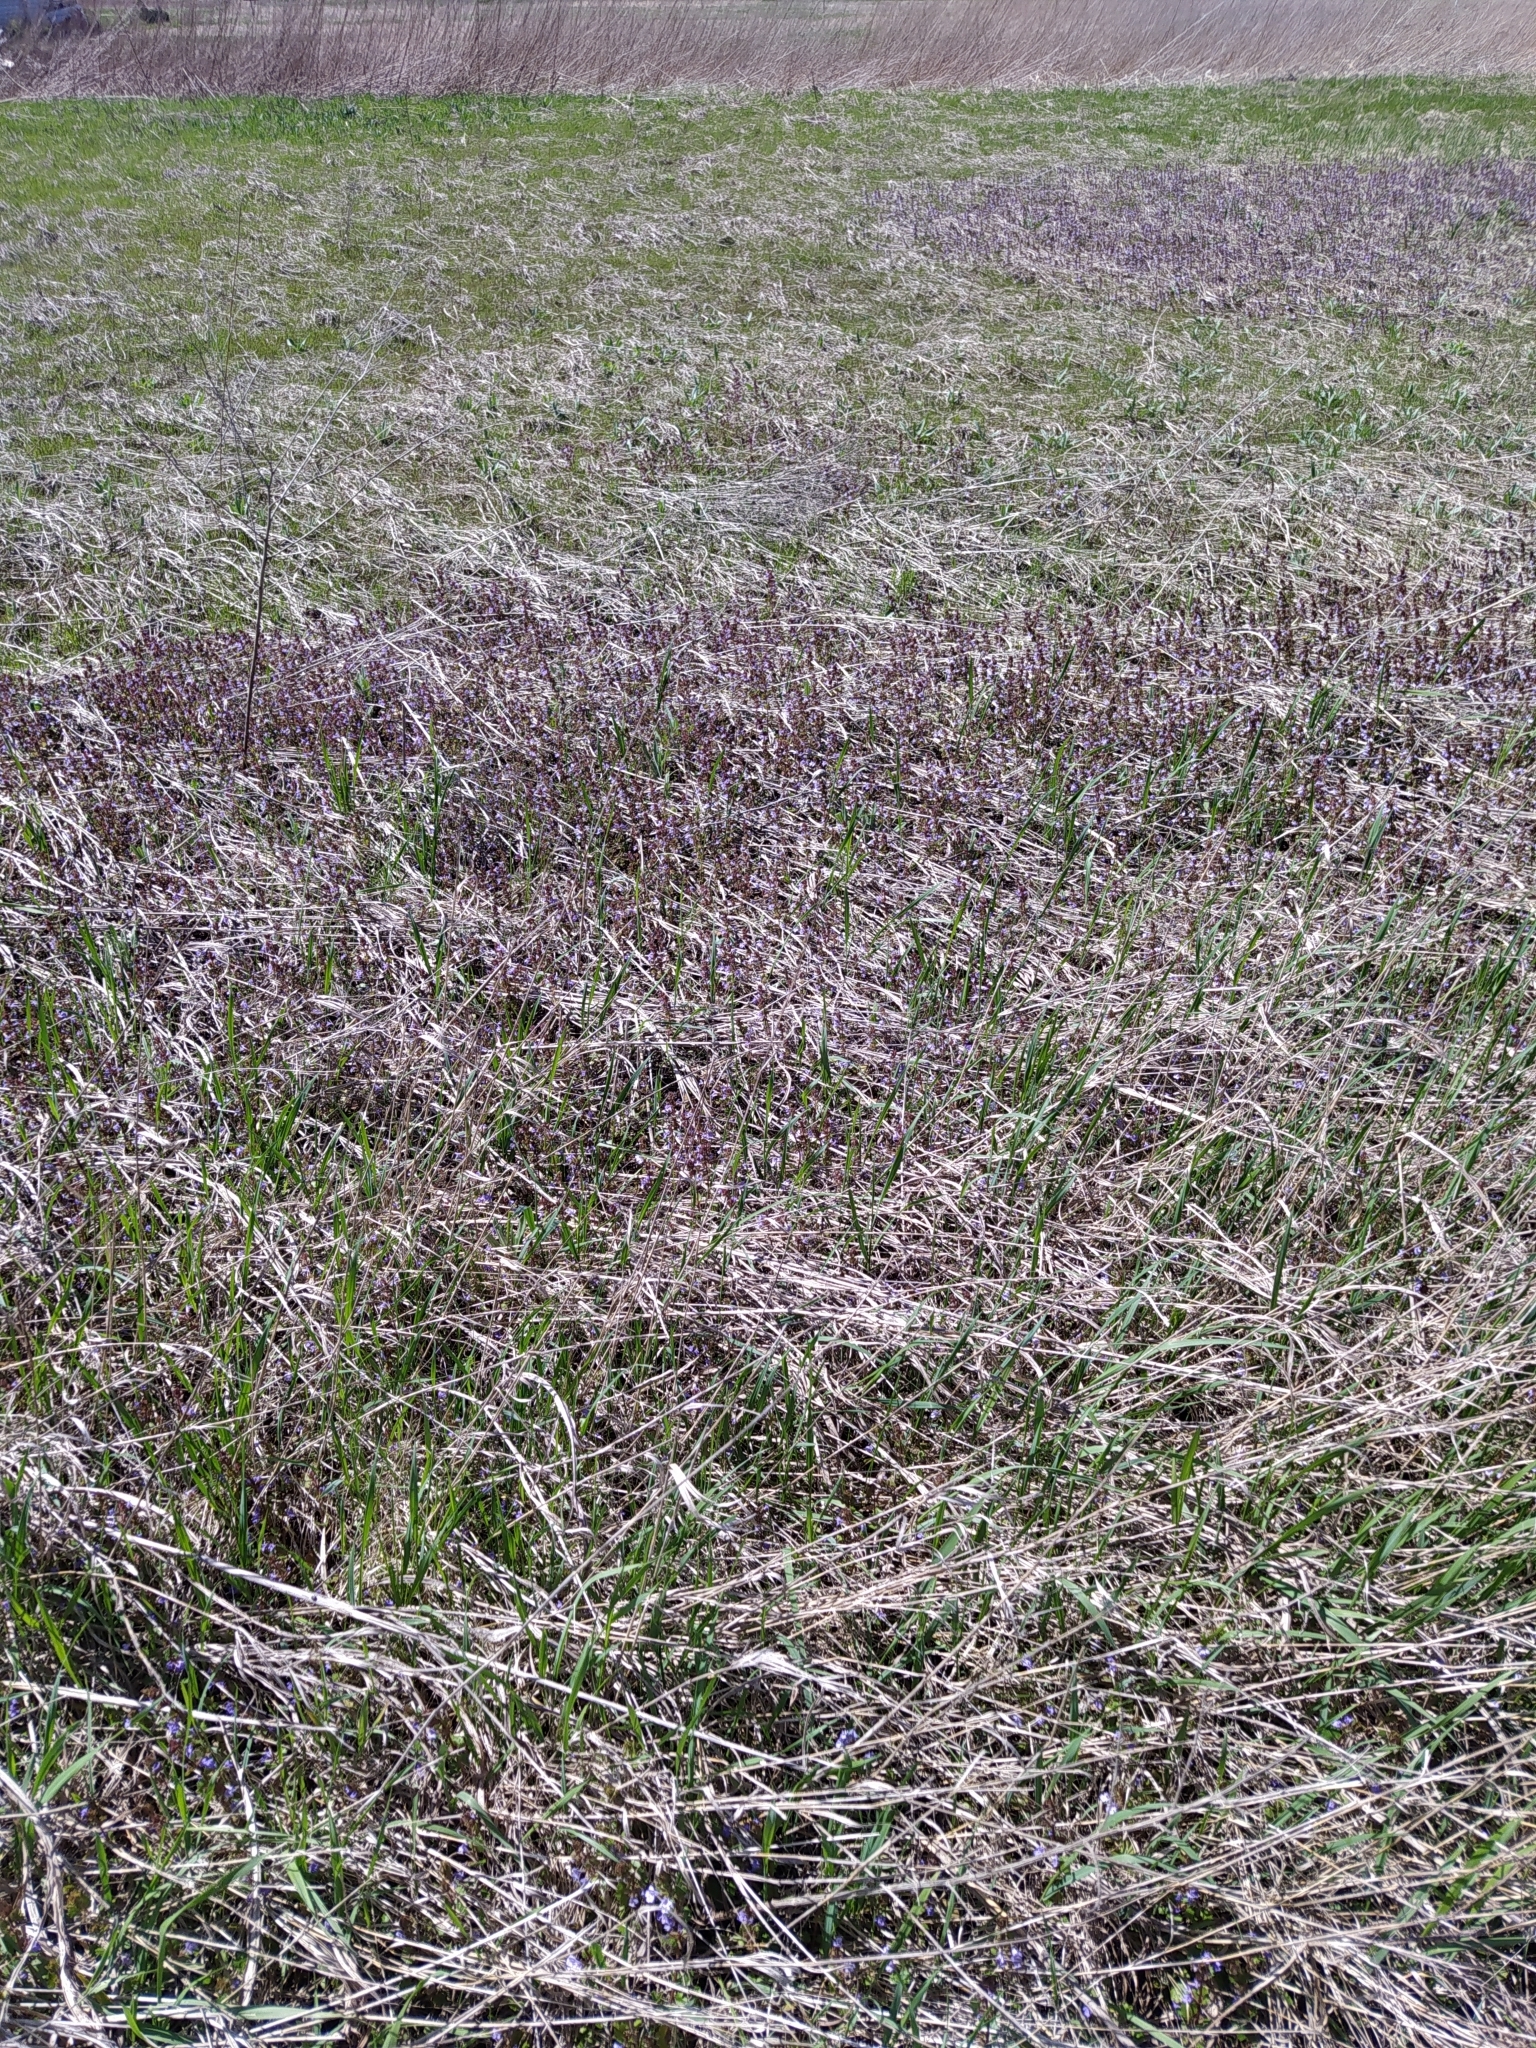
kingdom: Plantae
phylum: Tracheophyta
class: Magnoliopsida
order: Lamiales
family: Lamiaceae
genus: Glechoma
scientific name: Glechoma hederacea
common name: Ground ivy
